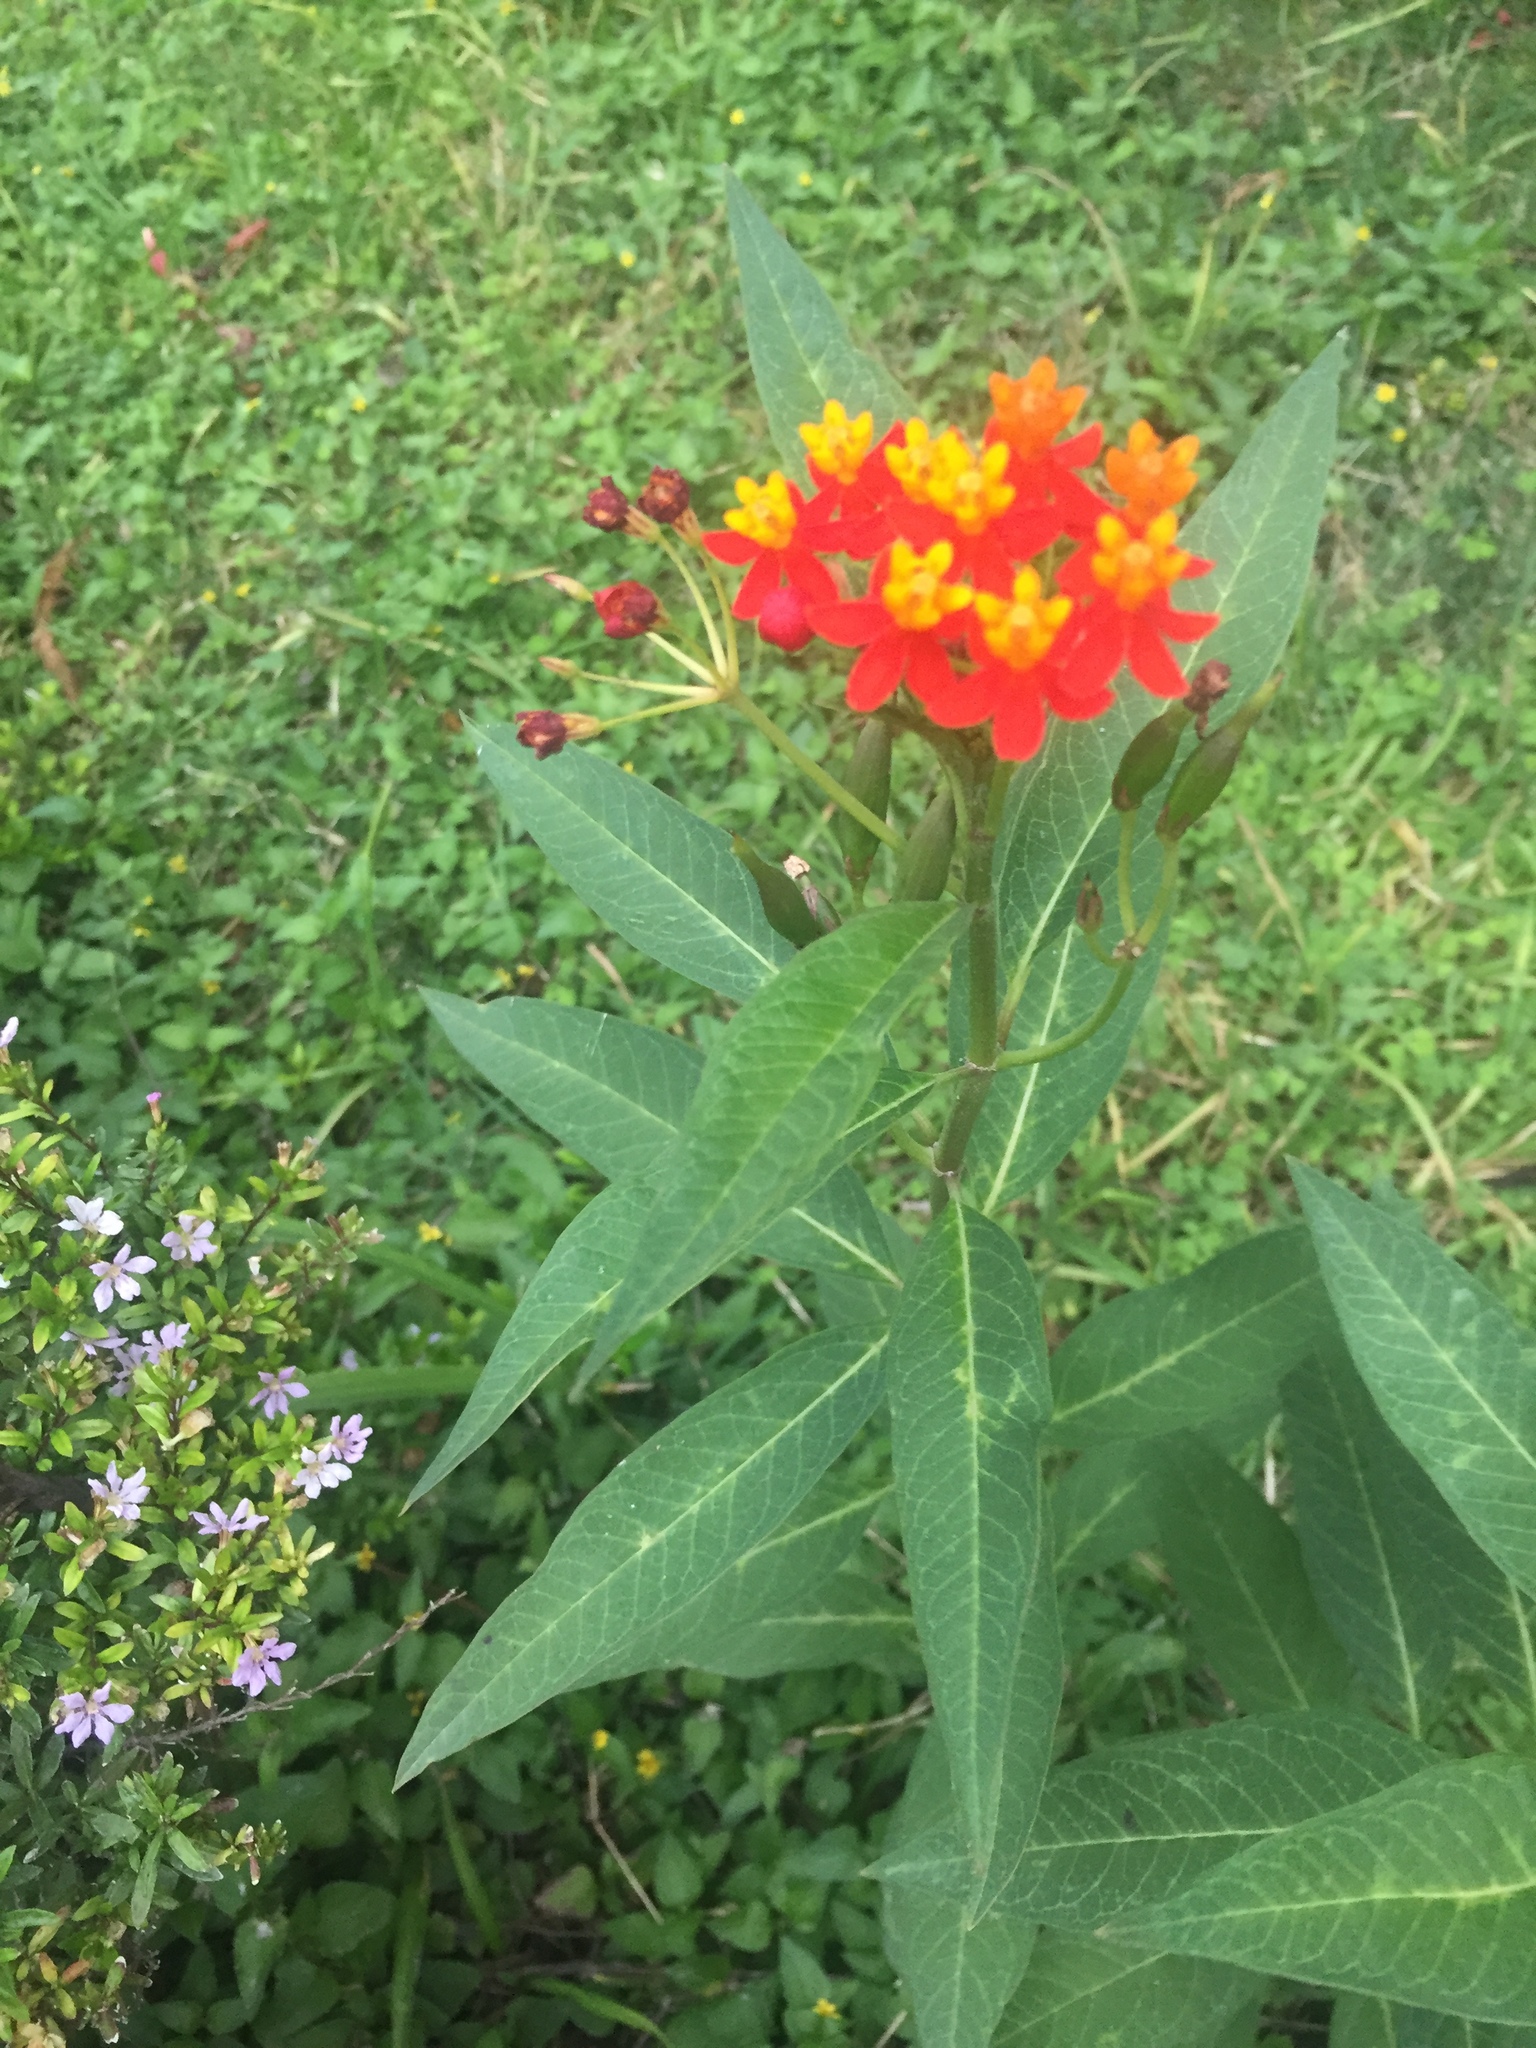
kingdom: Plantae
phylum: Tracheophyta
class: Magnoliopsida
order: Gentianales
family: Apocynaceae
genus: Asclepias
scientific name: Asclepias curassavica
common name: Bloodflower
